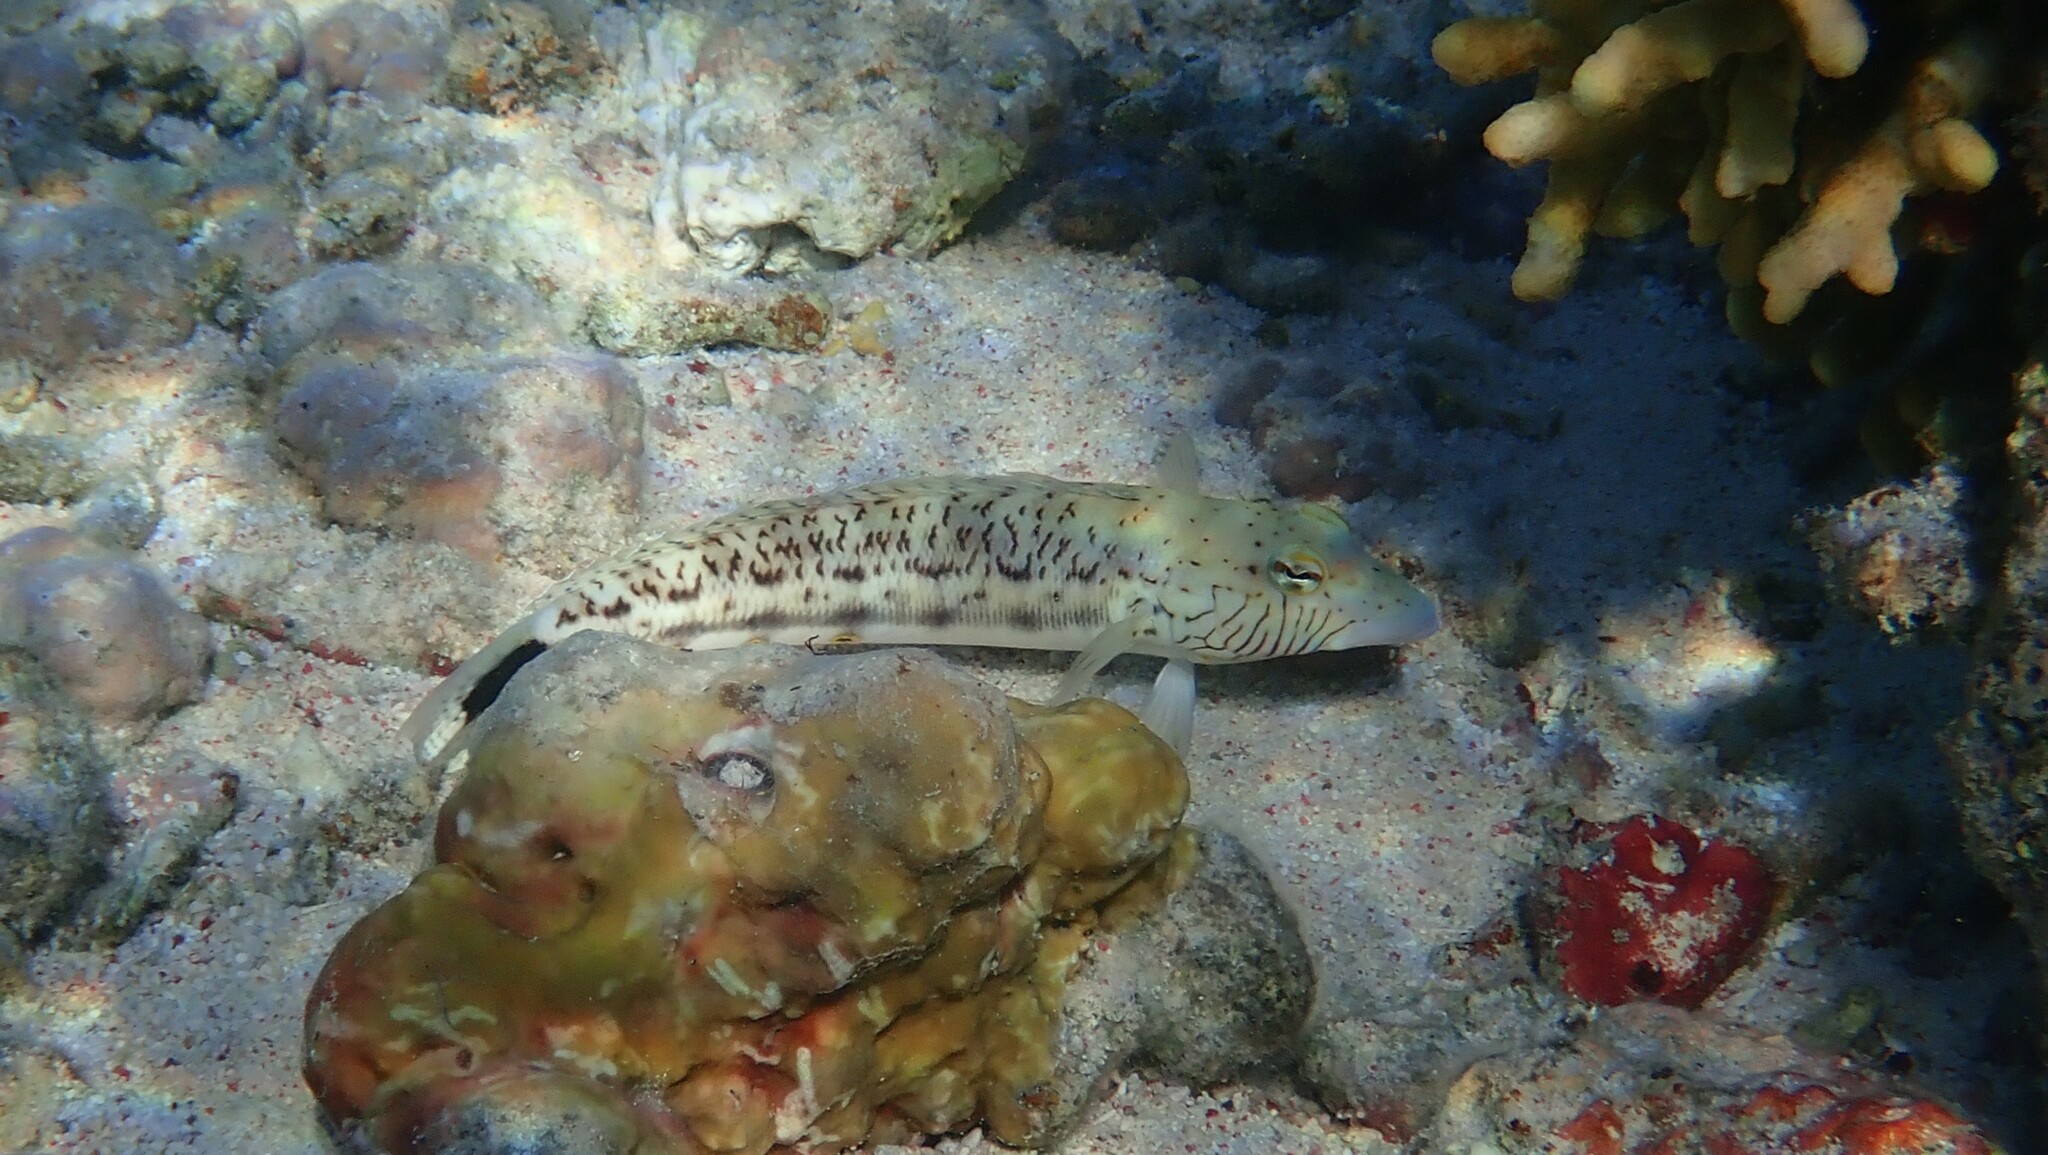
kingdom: Animalia
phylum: Chordata
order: Perciformes
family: Pinguipedidae
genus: Parapercis
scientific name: Parapercis hexophtalma
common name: Speckled sandperch
